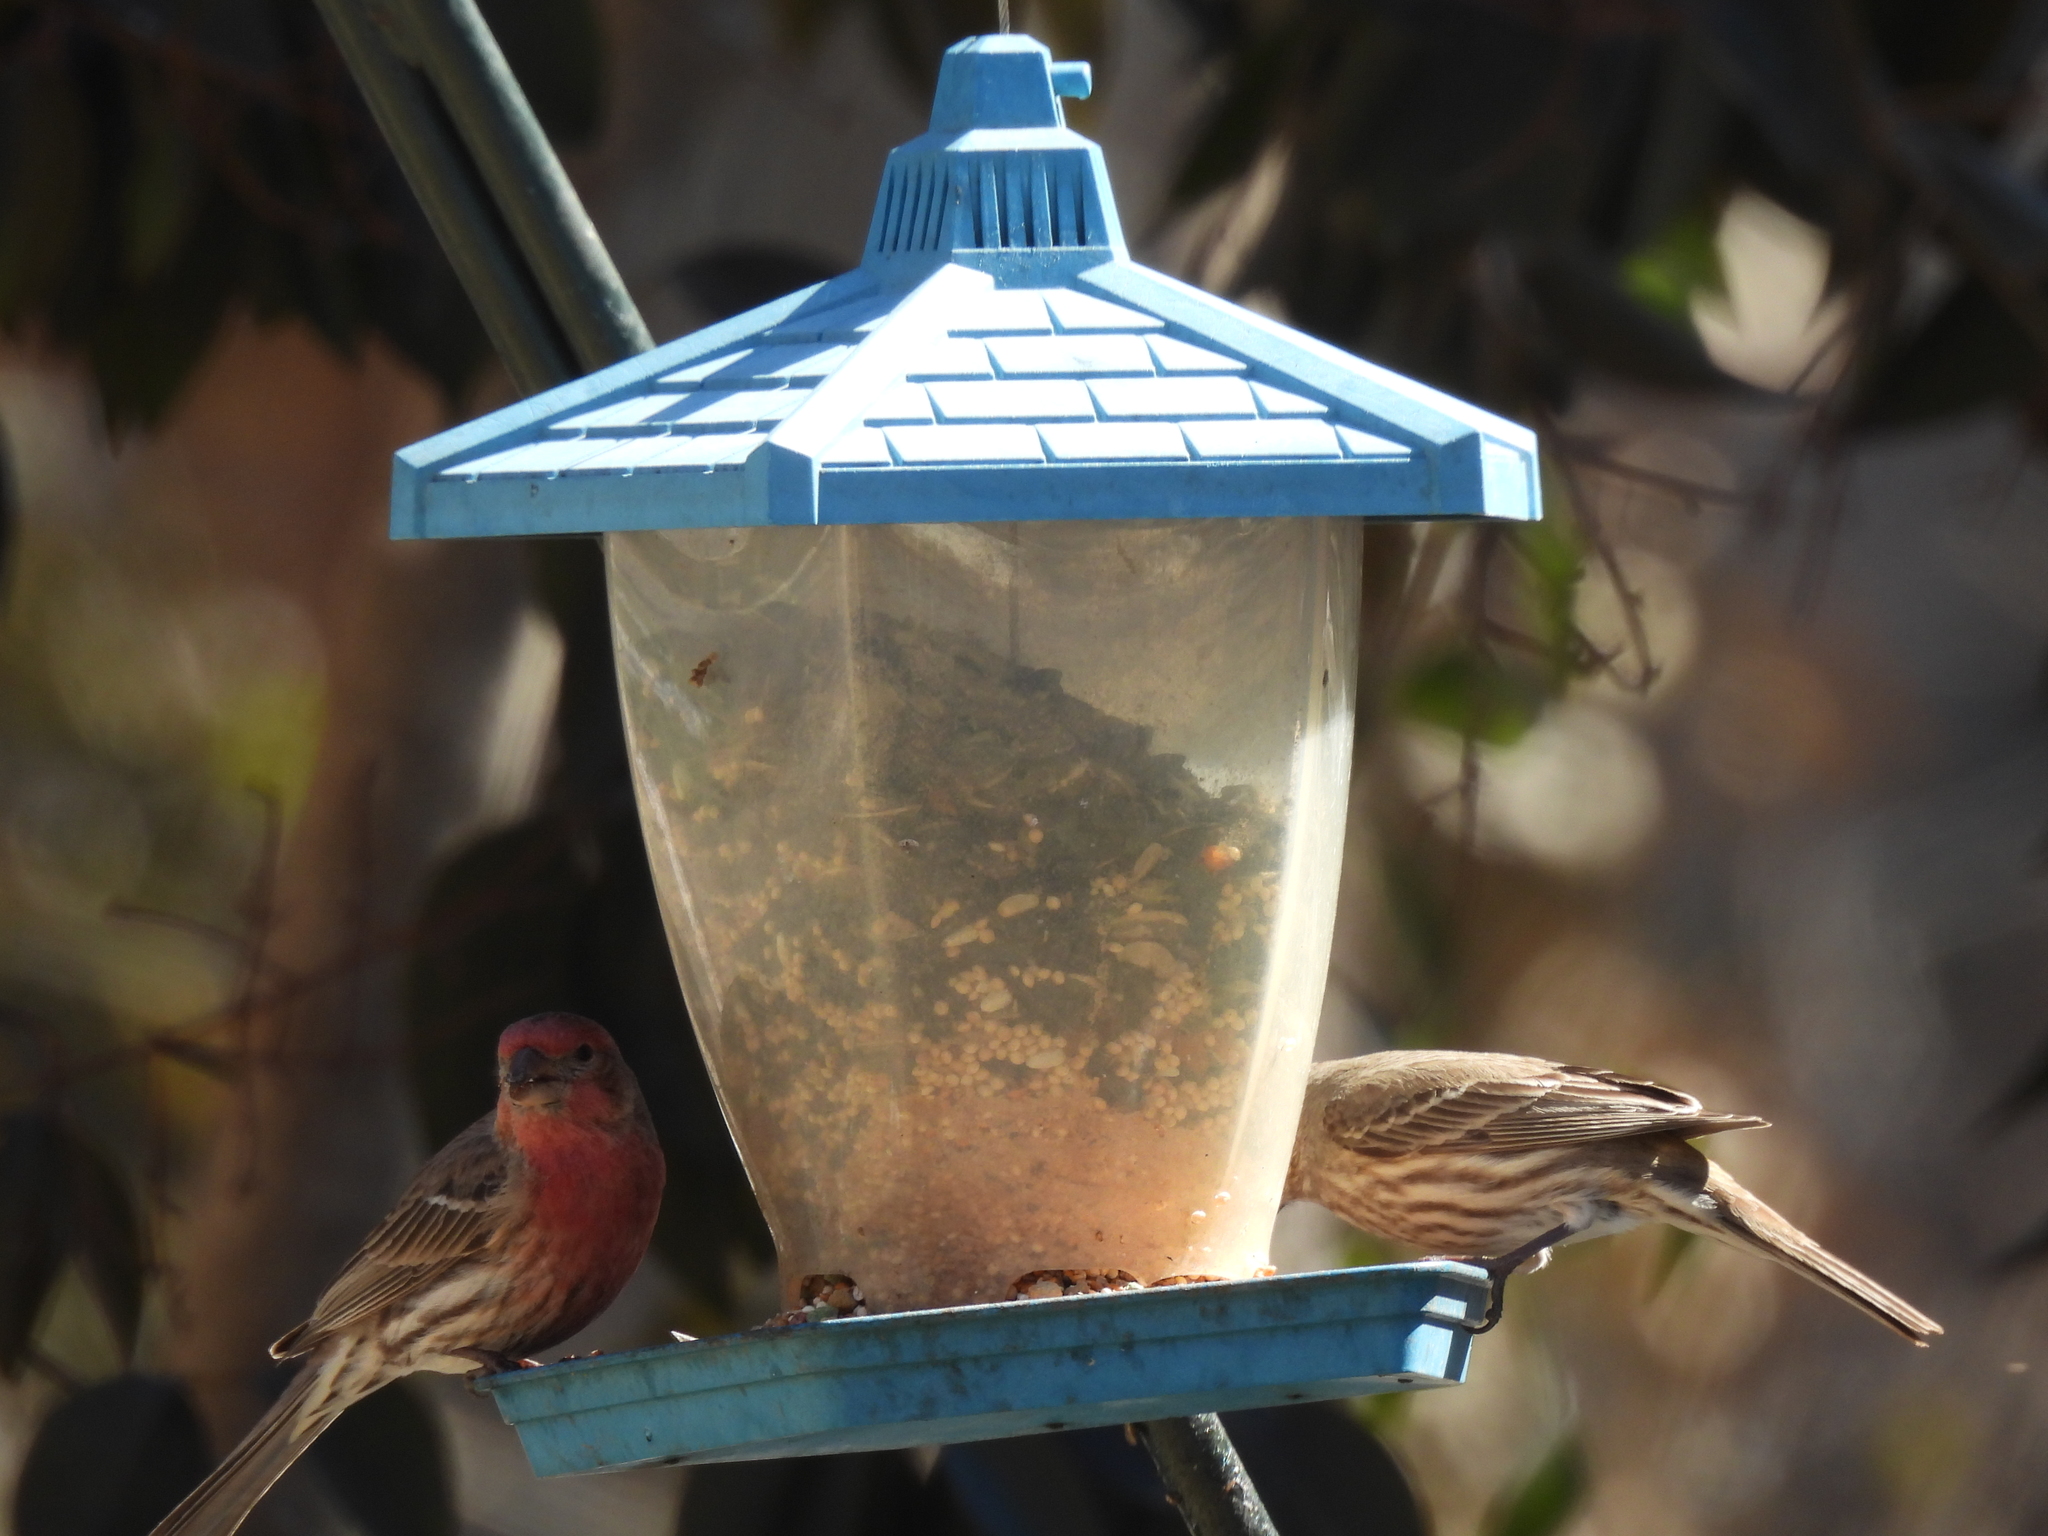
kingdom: Animalia
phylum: Chordata
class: Aves
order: Passeriformes
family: Fringillidae
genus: Haemorhous
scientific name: Haemorhous mexicanus
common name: House finch
